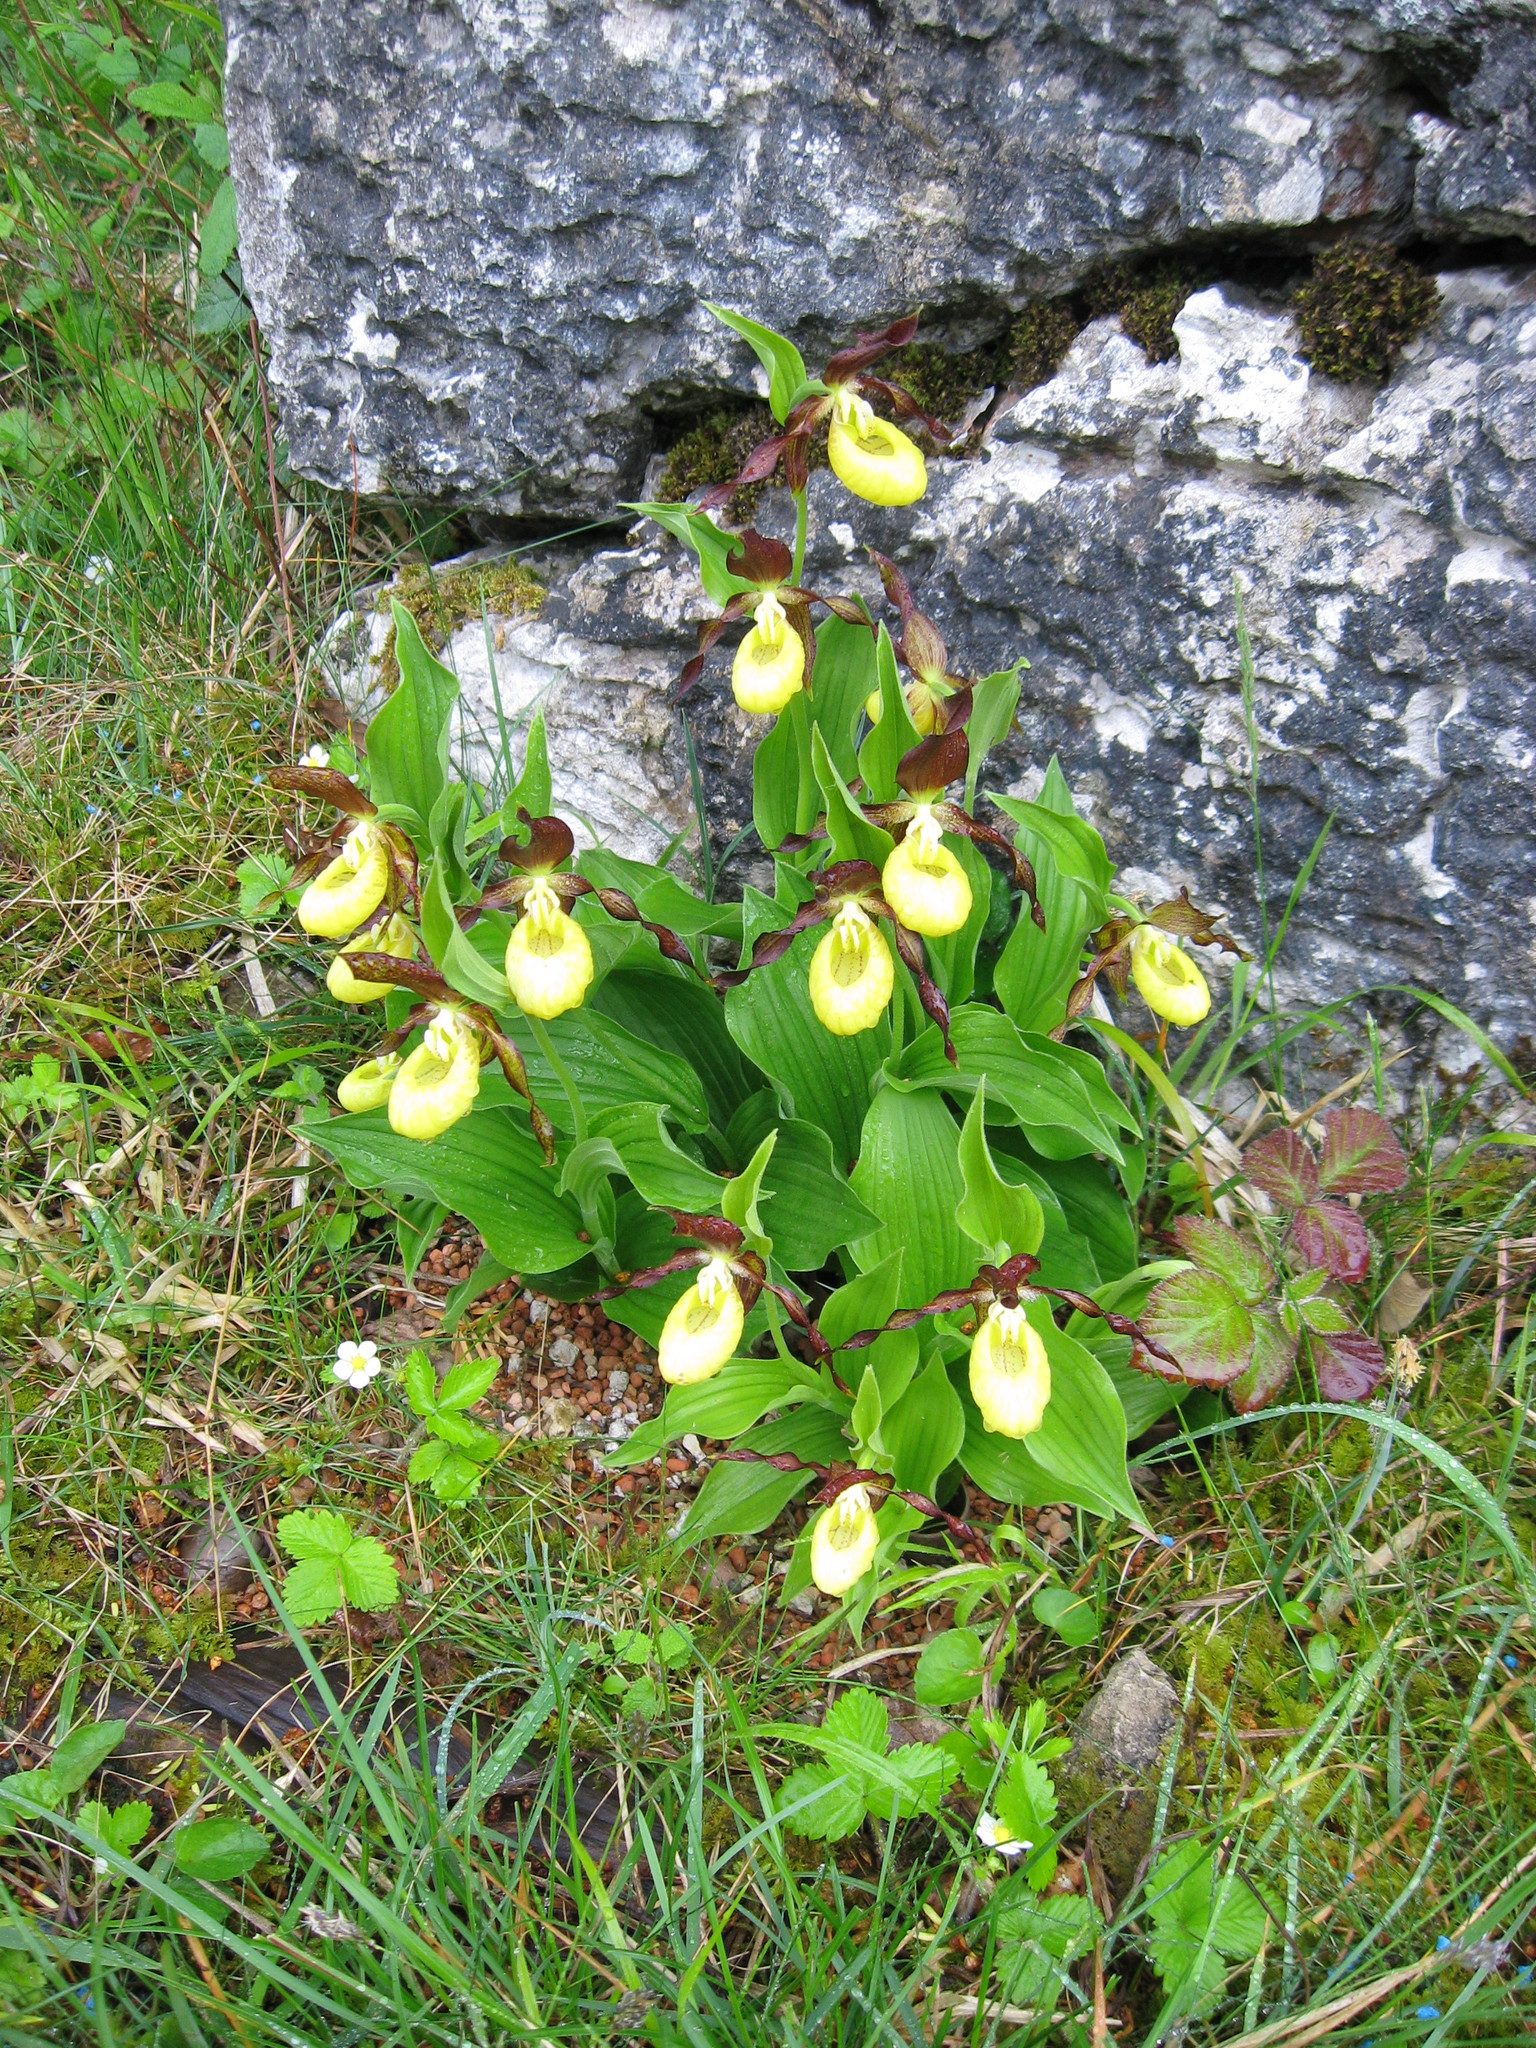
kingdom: Plantae
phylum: Tracheophyta
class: Liliopsida
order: Asparagales
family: Orchidaceae
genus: Cypripedium
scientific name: Cypripedium calceolus
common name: Lady's-slipper
